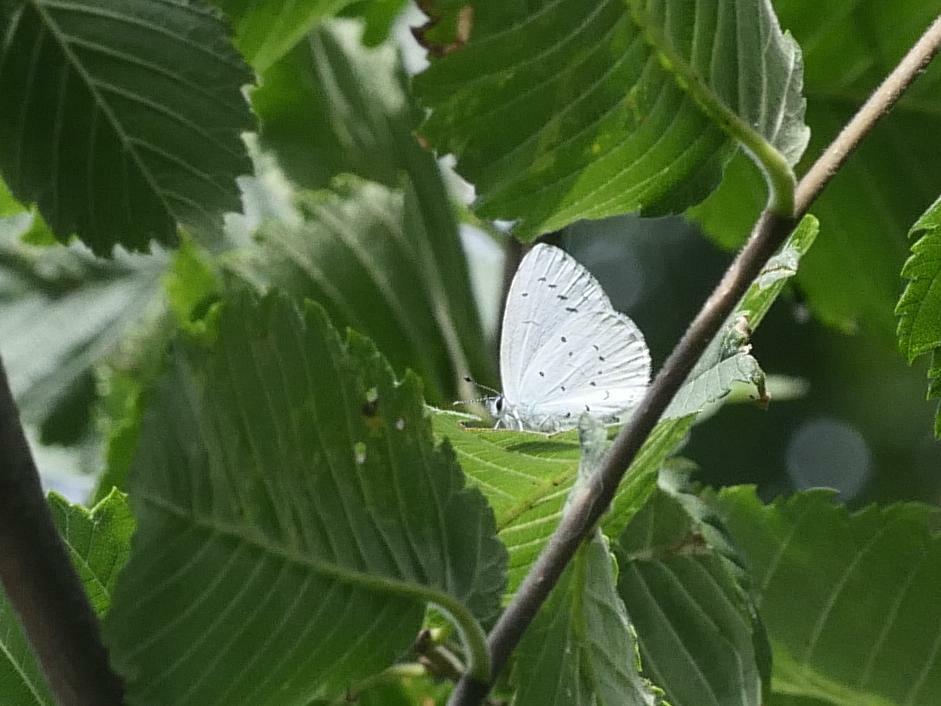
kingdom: Animalia
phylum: Arthropoda
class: Insecta
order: Lepidoptera
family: Lycaenidae
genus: Celastrina
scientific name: Celastrina argiolus
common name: Holly blue
